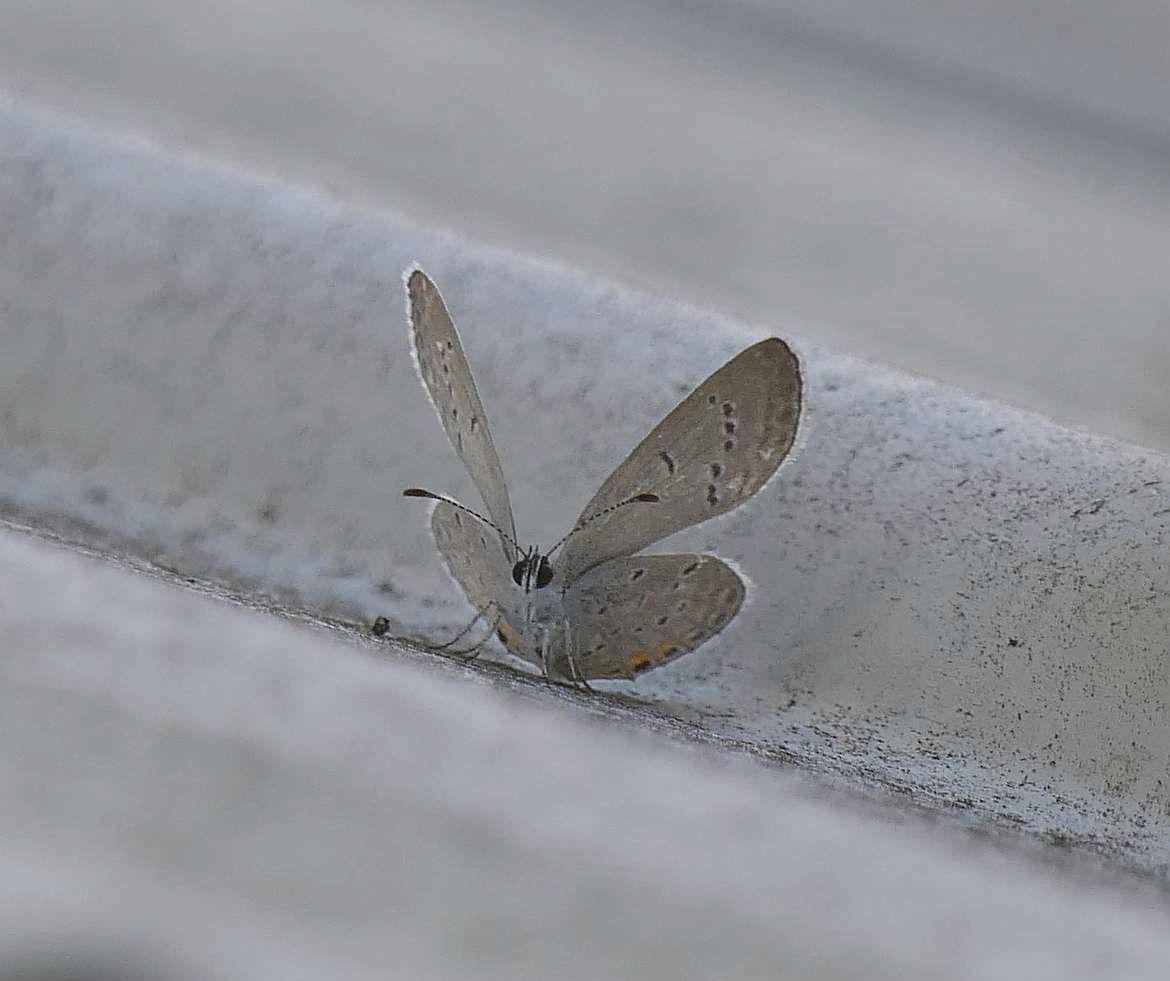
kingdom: Animalia
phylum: Arthropoda
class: Insecta
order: Lepidoptera
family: Lycaenidae
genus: Elkalyce
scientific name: Elkalyce comyntas
